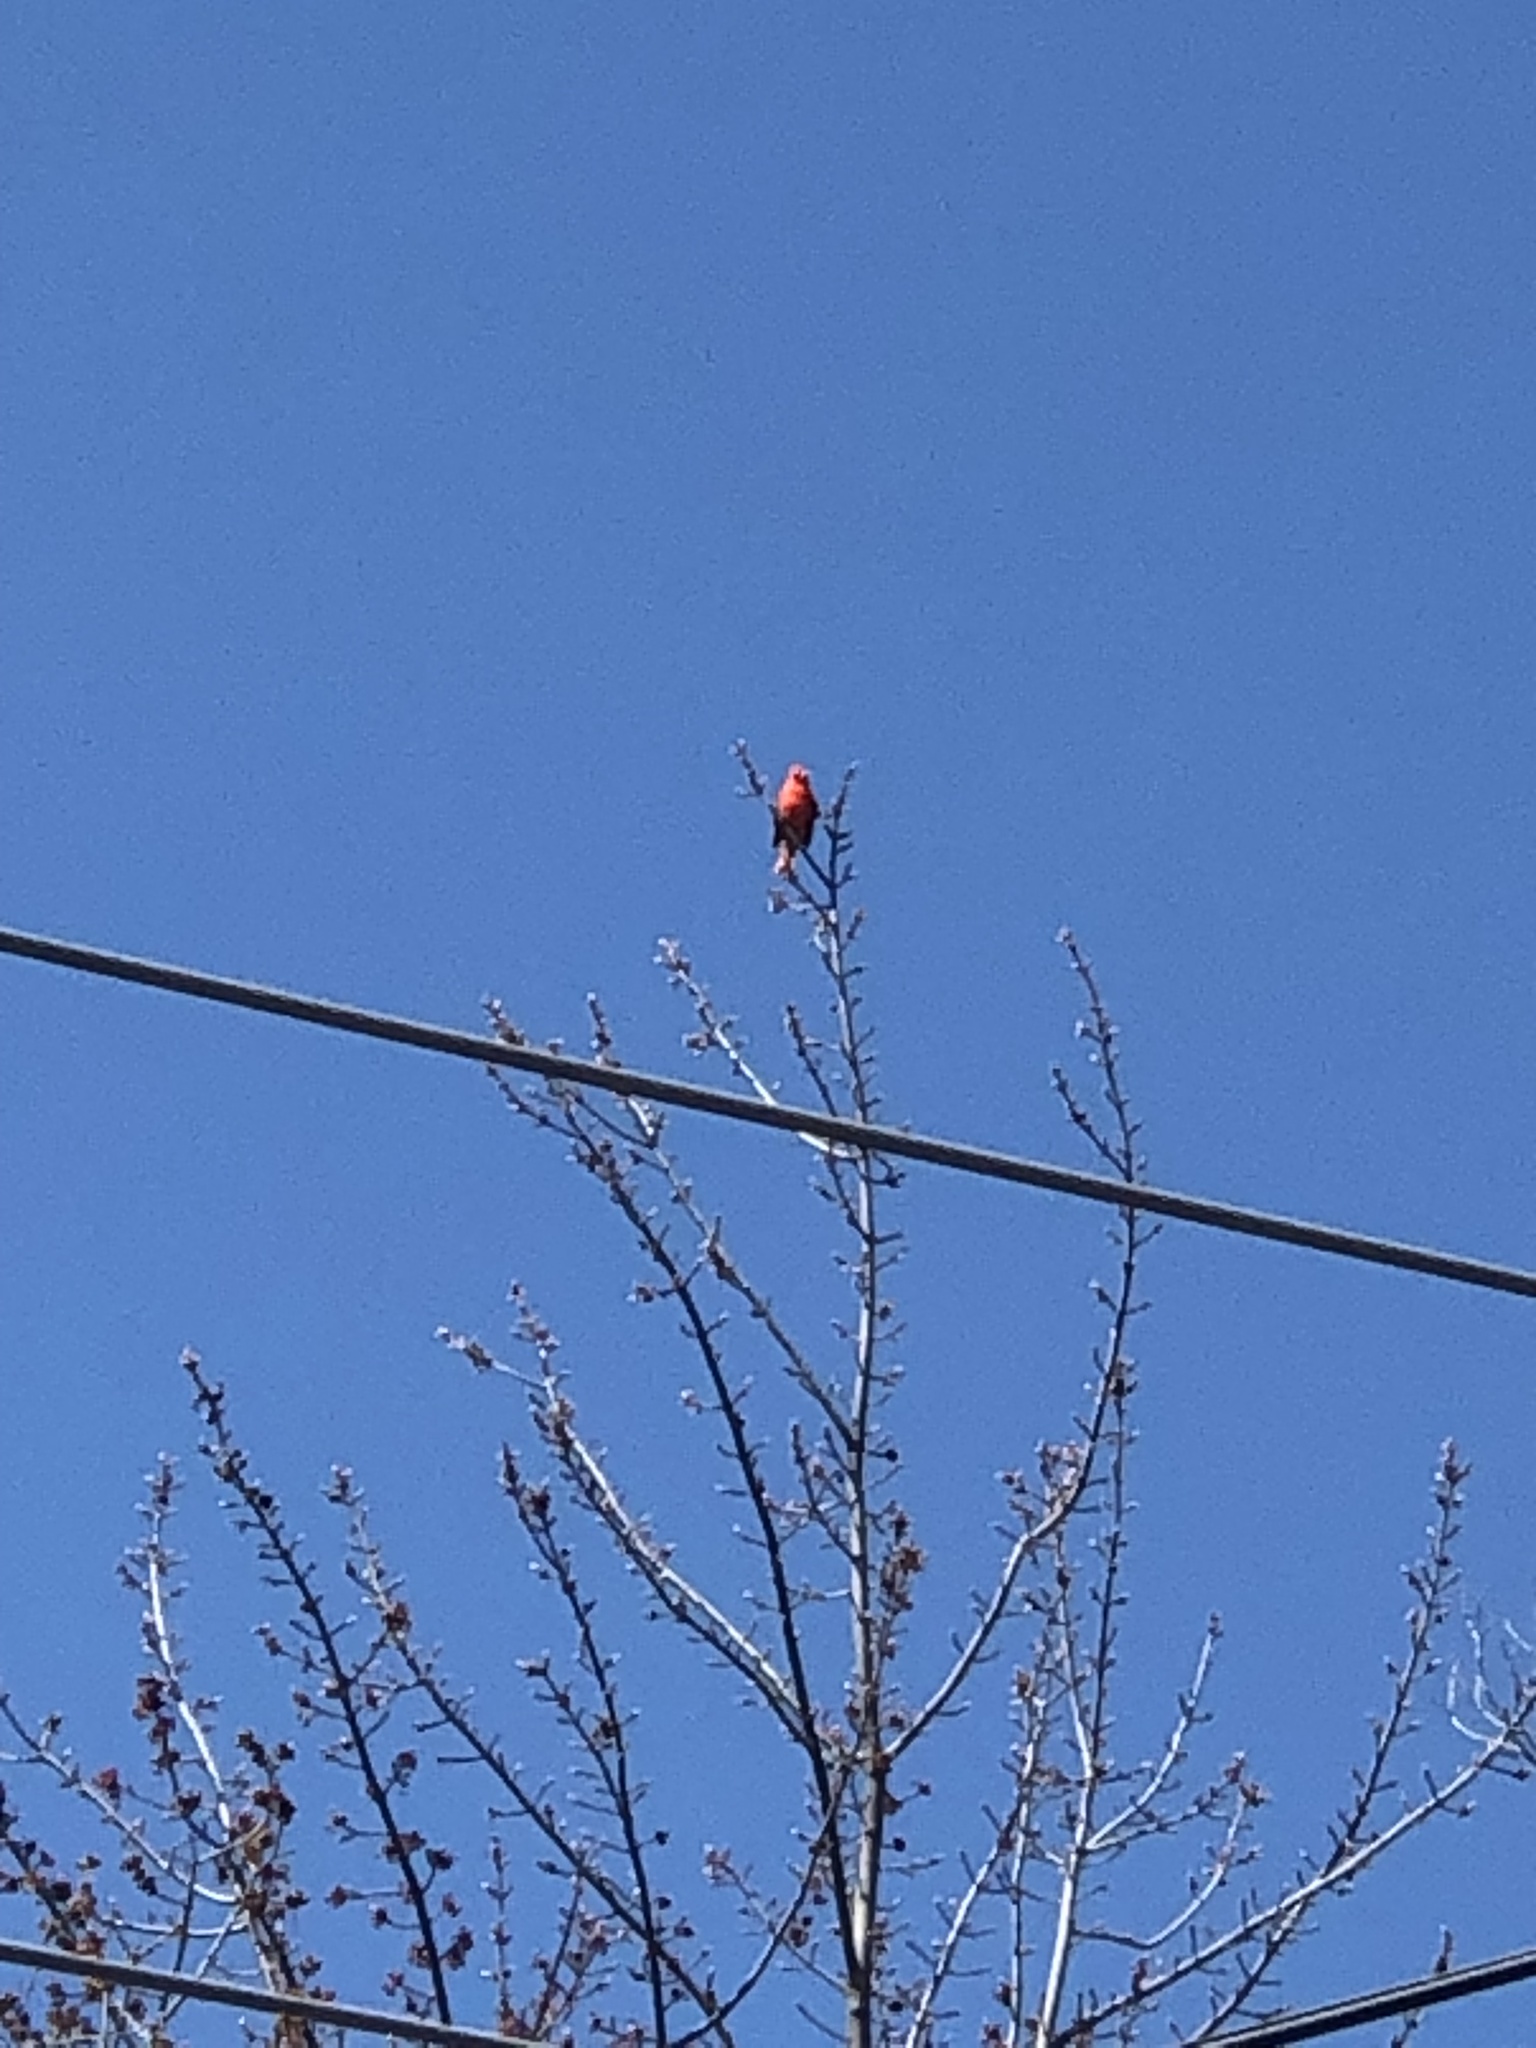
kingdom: Animalia
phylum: Chordata
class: Aves
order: Passeriformes
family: Cardinalidae
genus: Cardinalis
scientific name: Cardinalis cardinalis
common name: Northern cardinal
